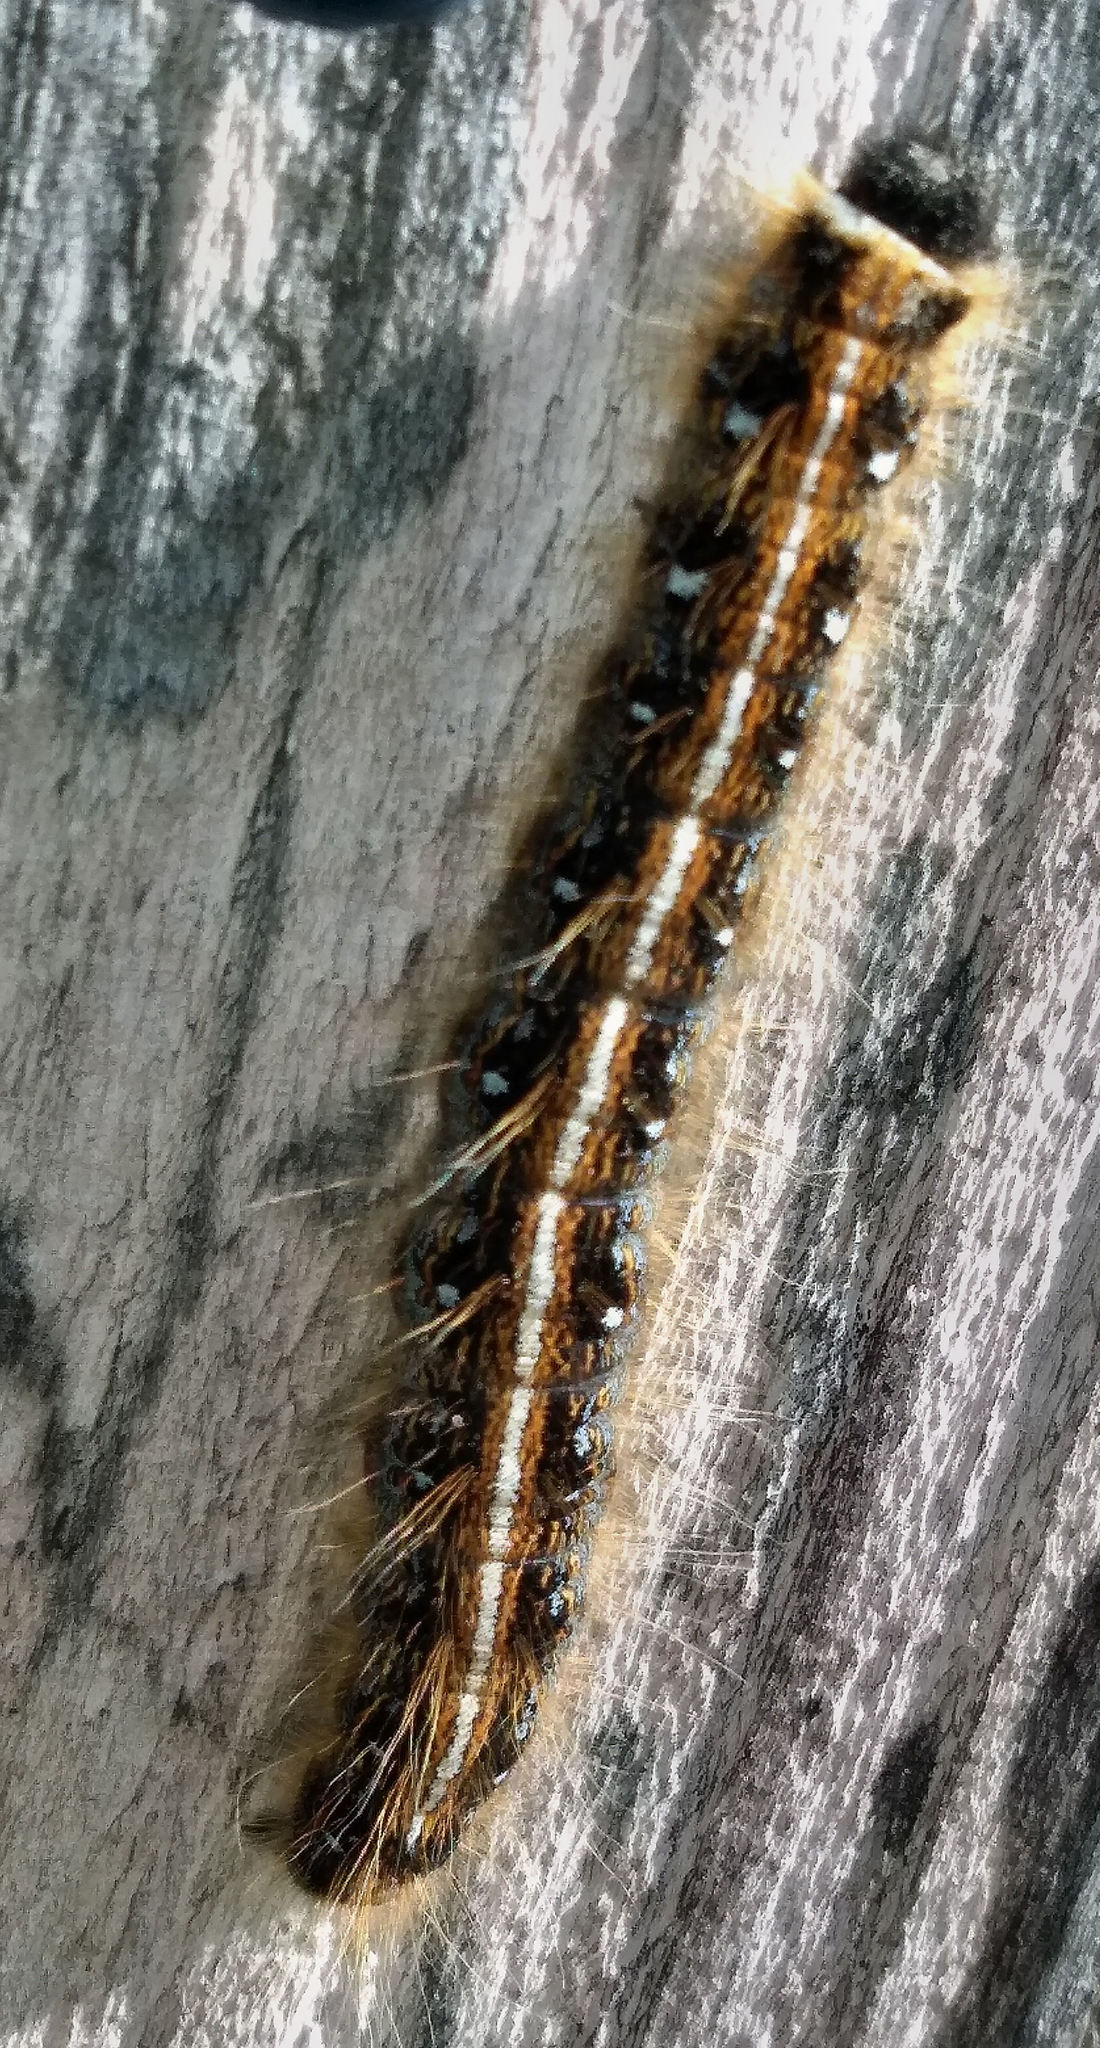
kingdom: Animalia
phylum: Arthropoda
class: Insecta
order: Lepidoptera
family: Lasiocampidae
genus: Malacosoma
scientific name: Malacosoma americana
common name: Eastern tent caterpillar moth
